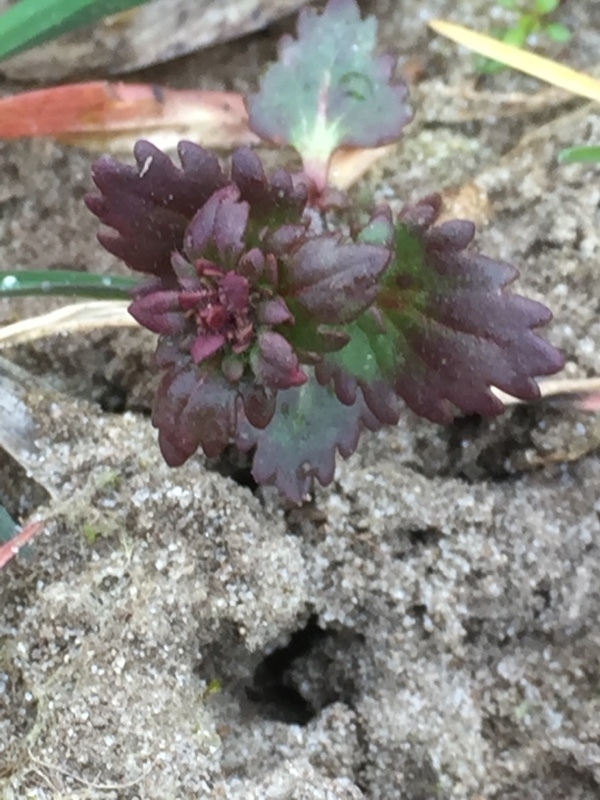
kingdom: Plantae
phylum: Tracheophyta
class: Magnoliopsida
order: Lamiales
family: Plantaginaceae
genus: Veronica
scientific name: Veronica praecox
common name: Breckland speedwell
